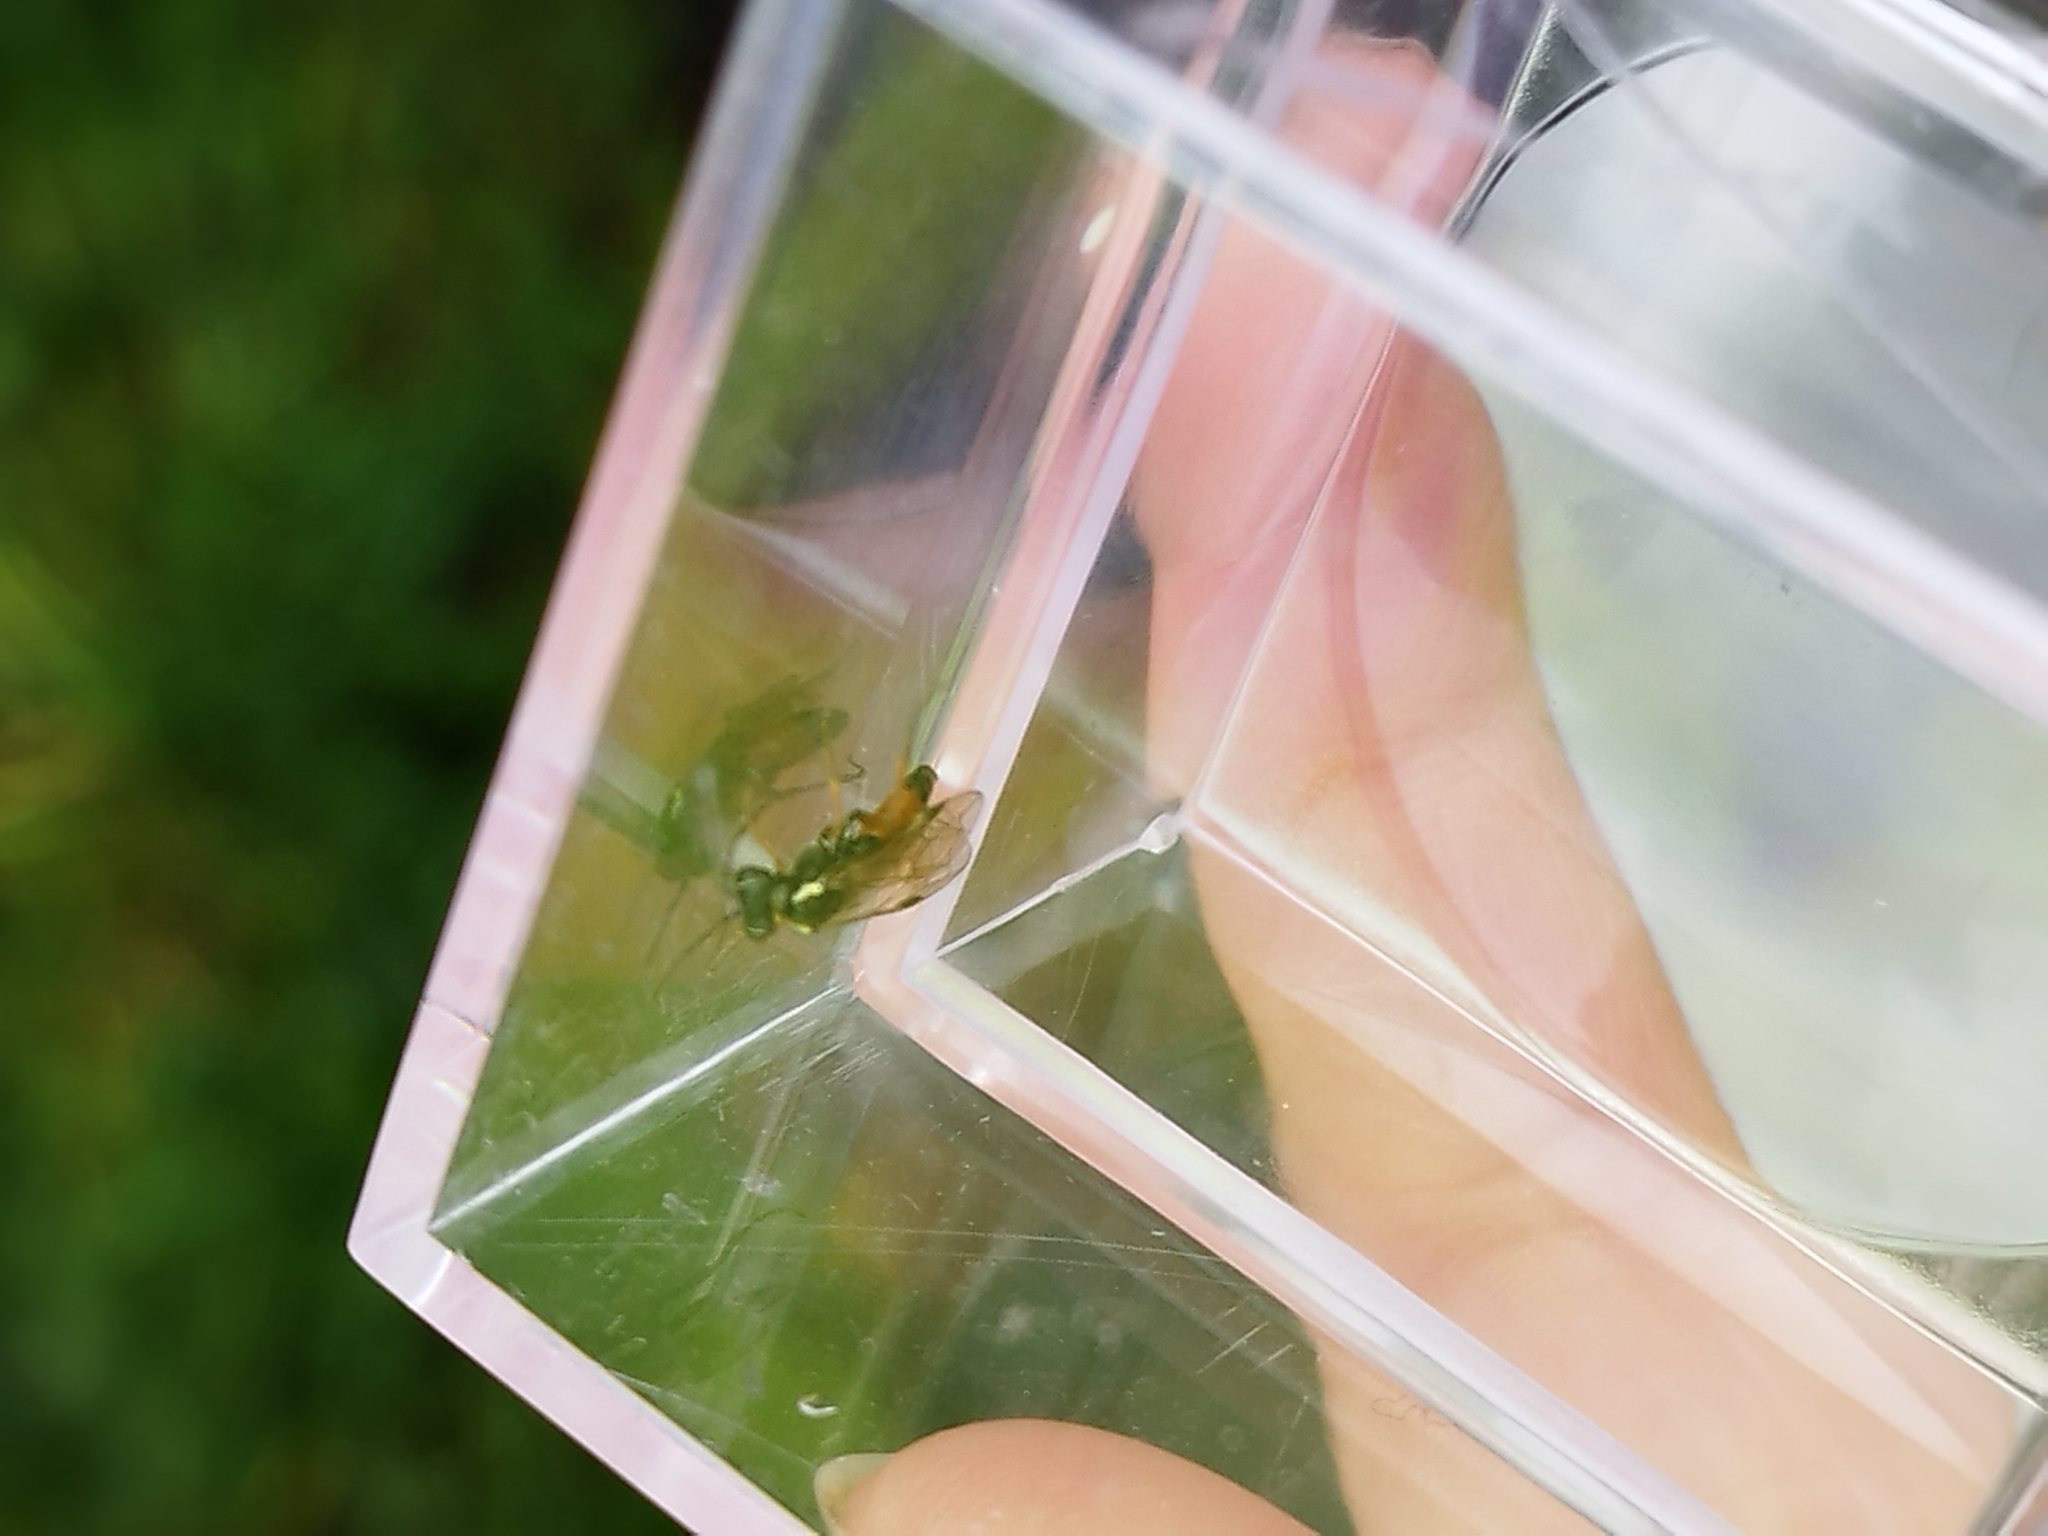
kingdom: Animalia
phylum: Arthropoda
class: Insecta
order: Hymenoptera
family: Tenthredinidae
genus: Aglaostigma
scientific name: Aglaostigma aucupariae
